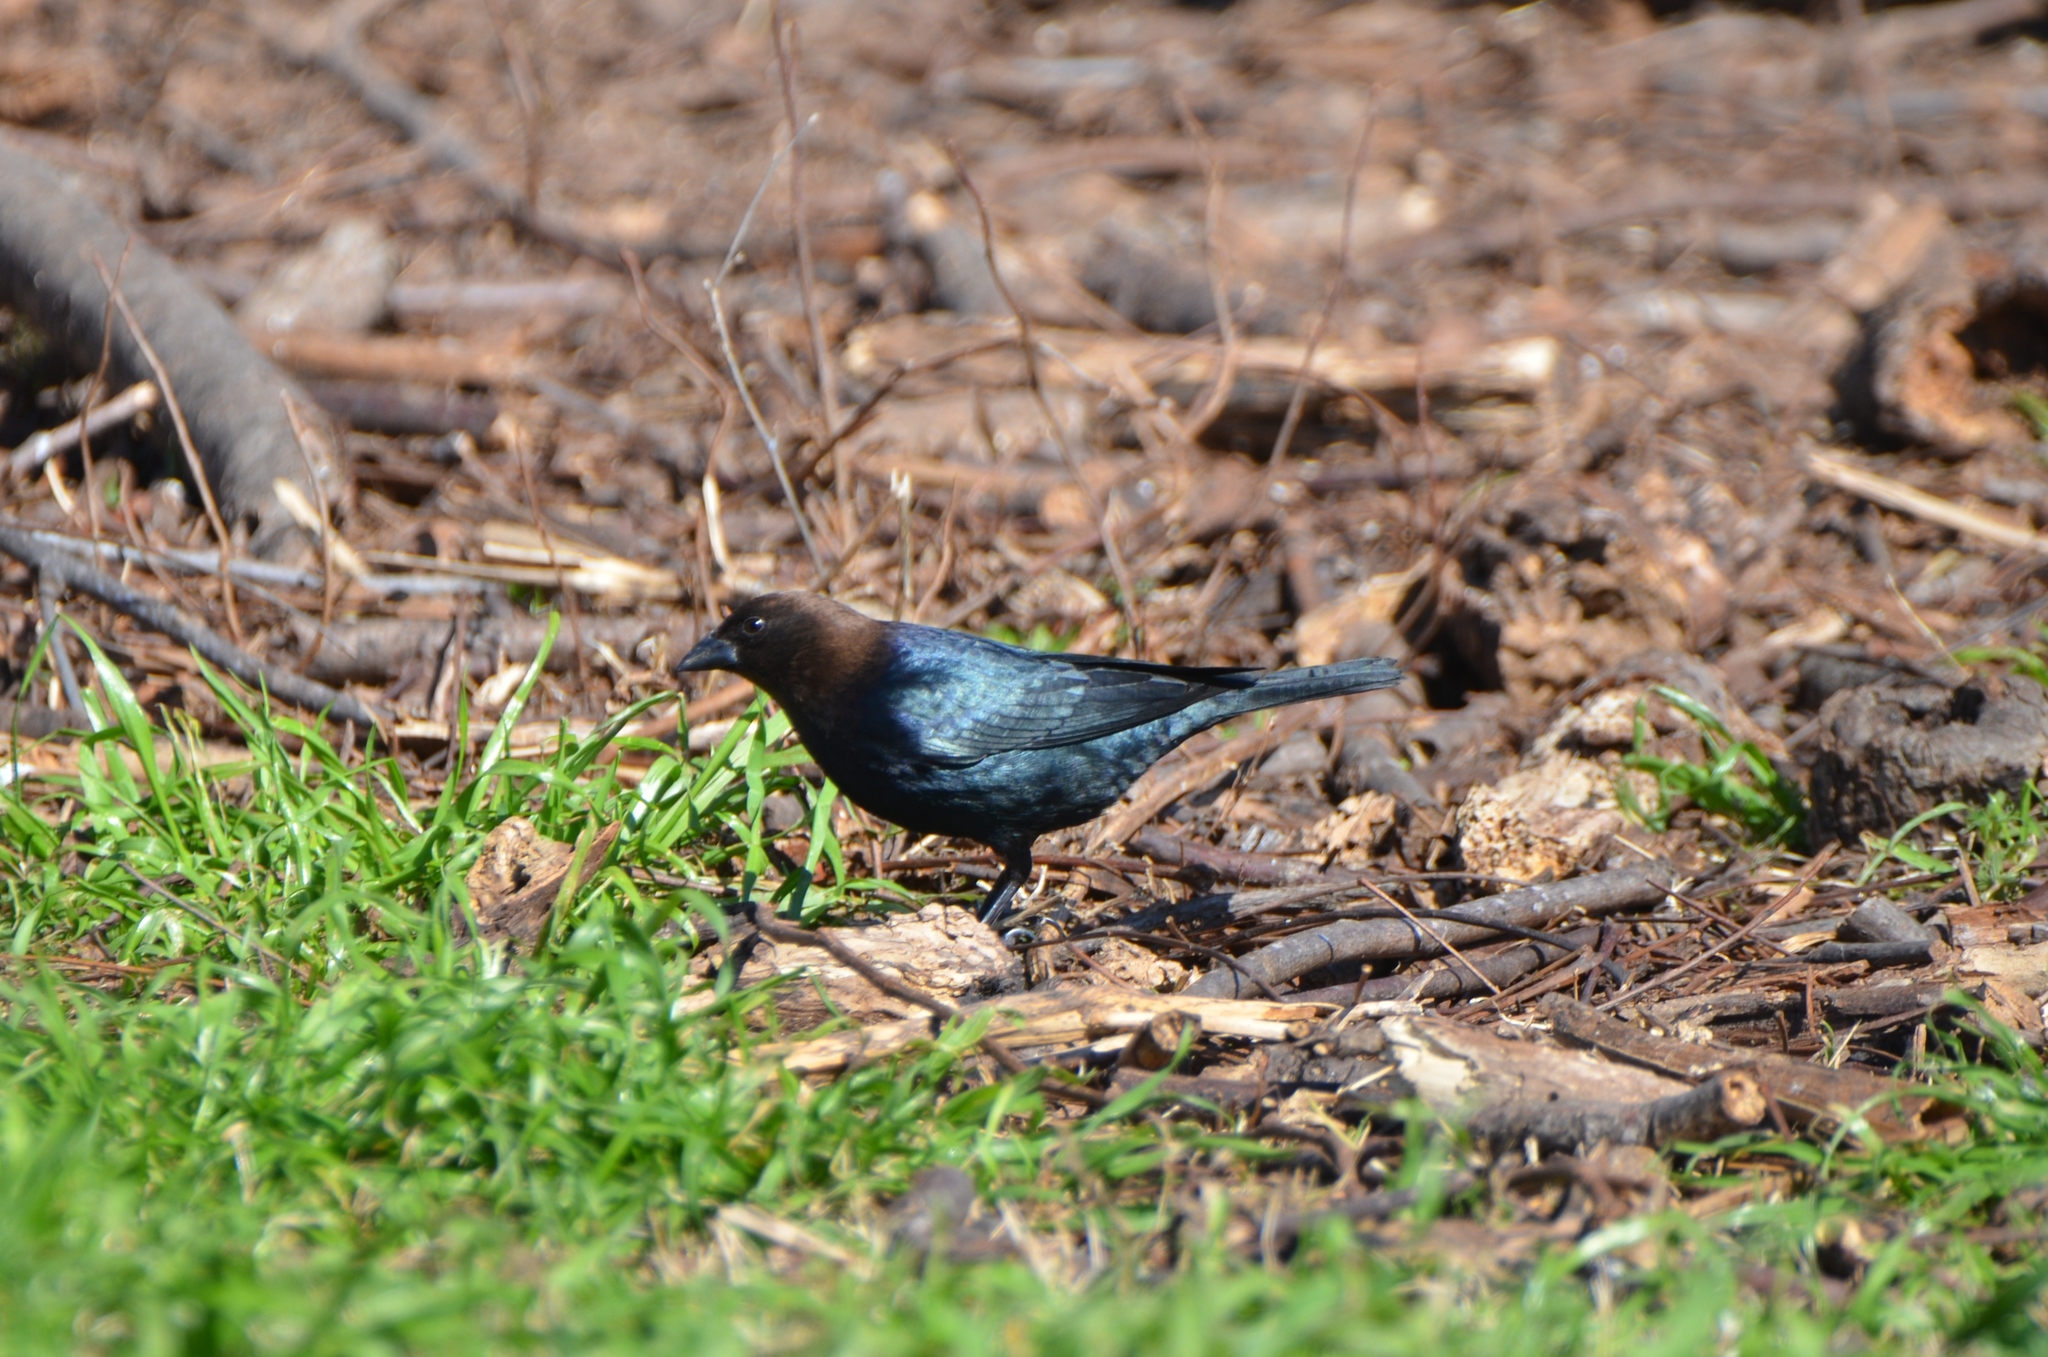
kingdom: Animalia
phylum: Chordata
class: Aves
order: Passeriformes
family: Icteridae
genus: Molothrus
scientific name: Molothrus ater
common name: Brown-headed cowbird
